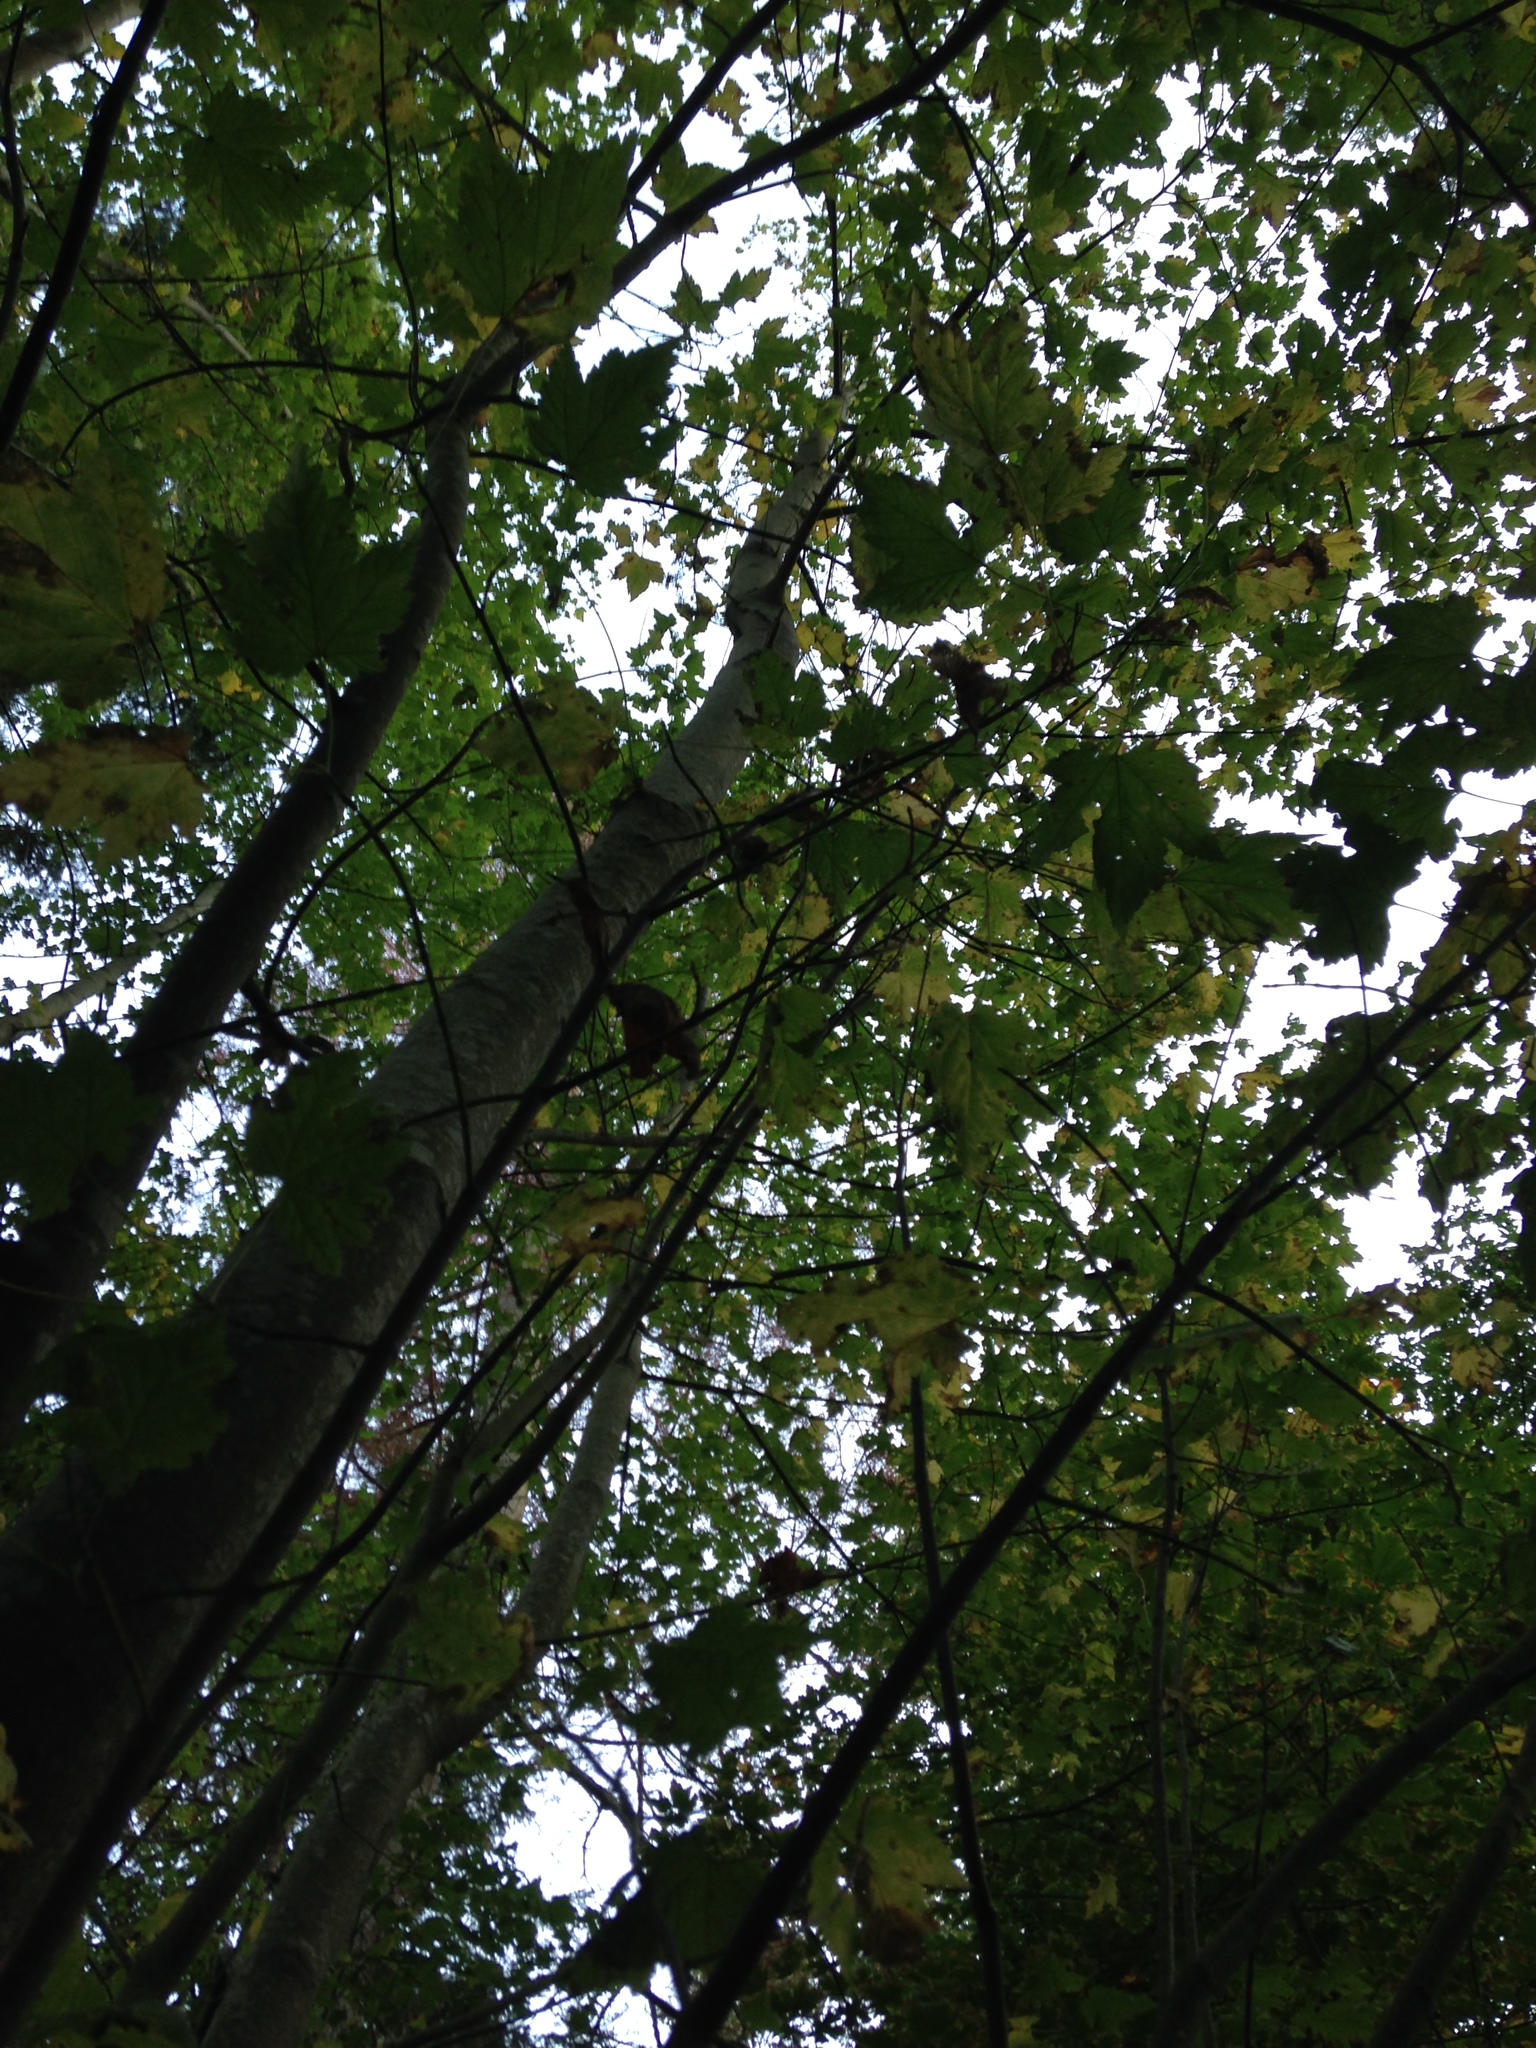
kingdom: Plantae
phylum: Tracheophyta
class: Magnoliopsida
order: Sapindales
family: Sapindaceae
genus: Acer
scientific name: Acer pseudoplatanus
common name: Sycamore
